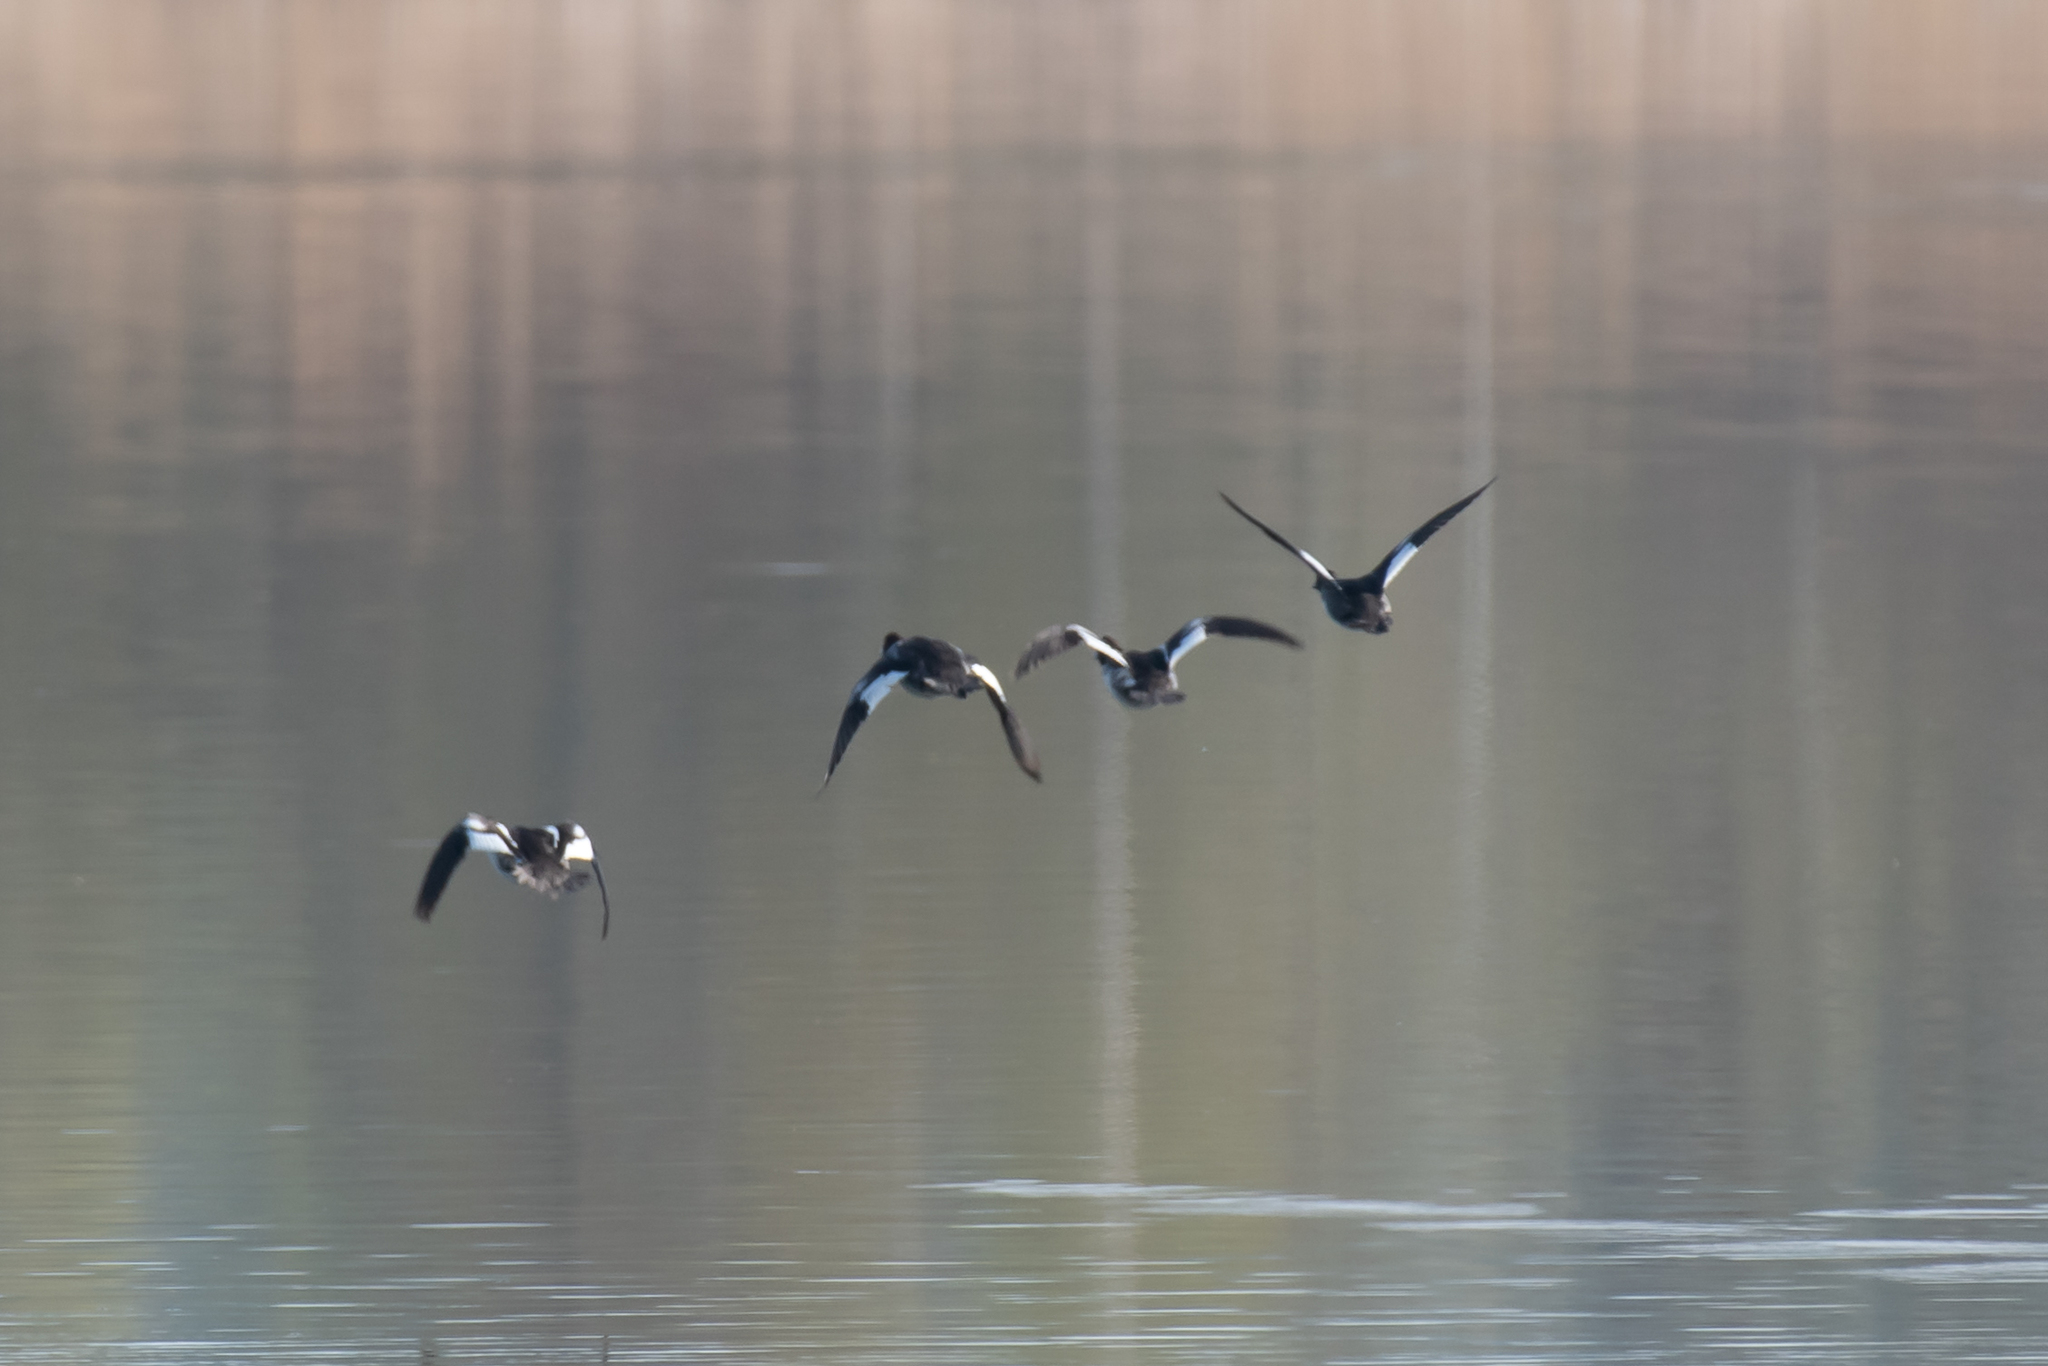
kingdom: Animalia
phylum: Chordata
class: Aves
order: Anseriformes
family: Anatidae
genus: Bucephala
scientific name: Bucephala clangula
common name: Common goldeneye
